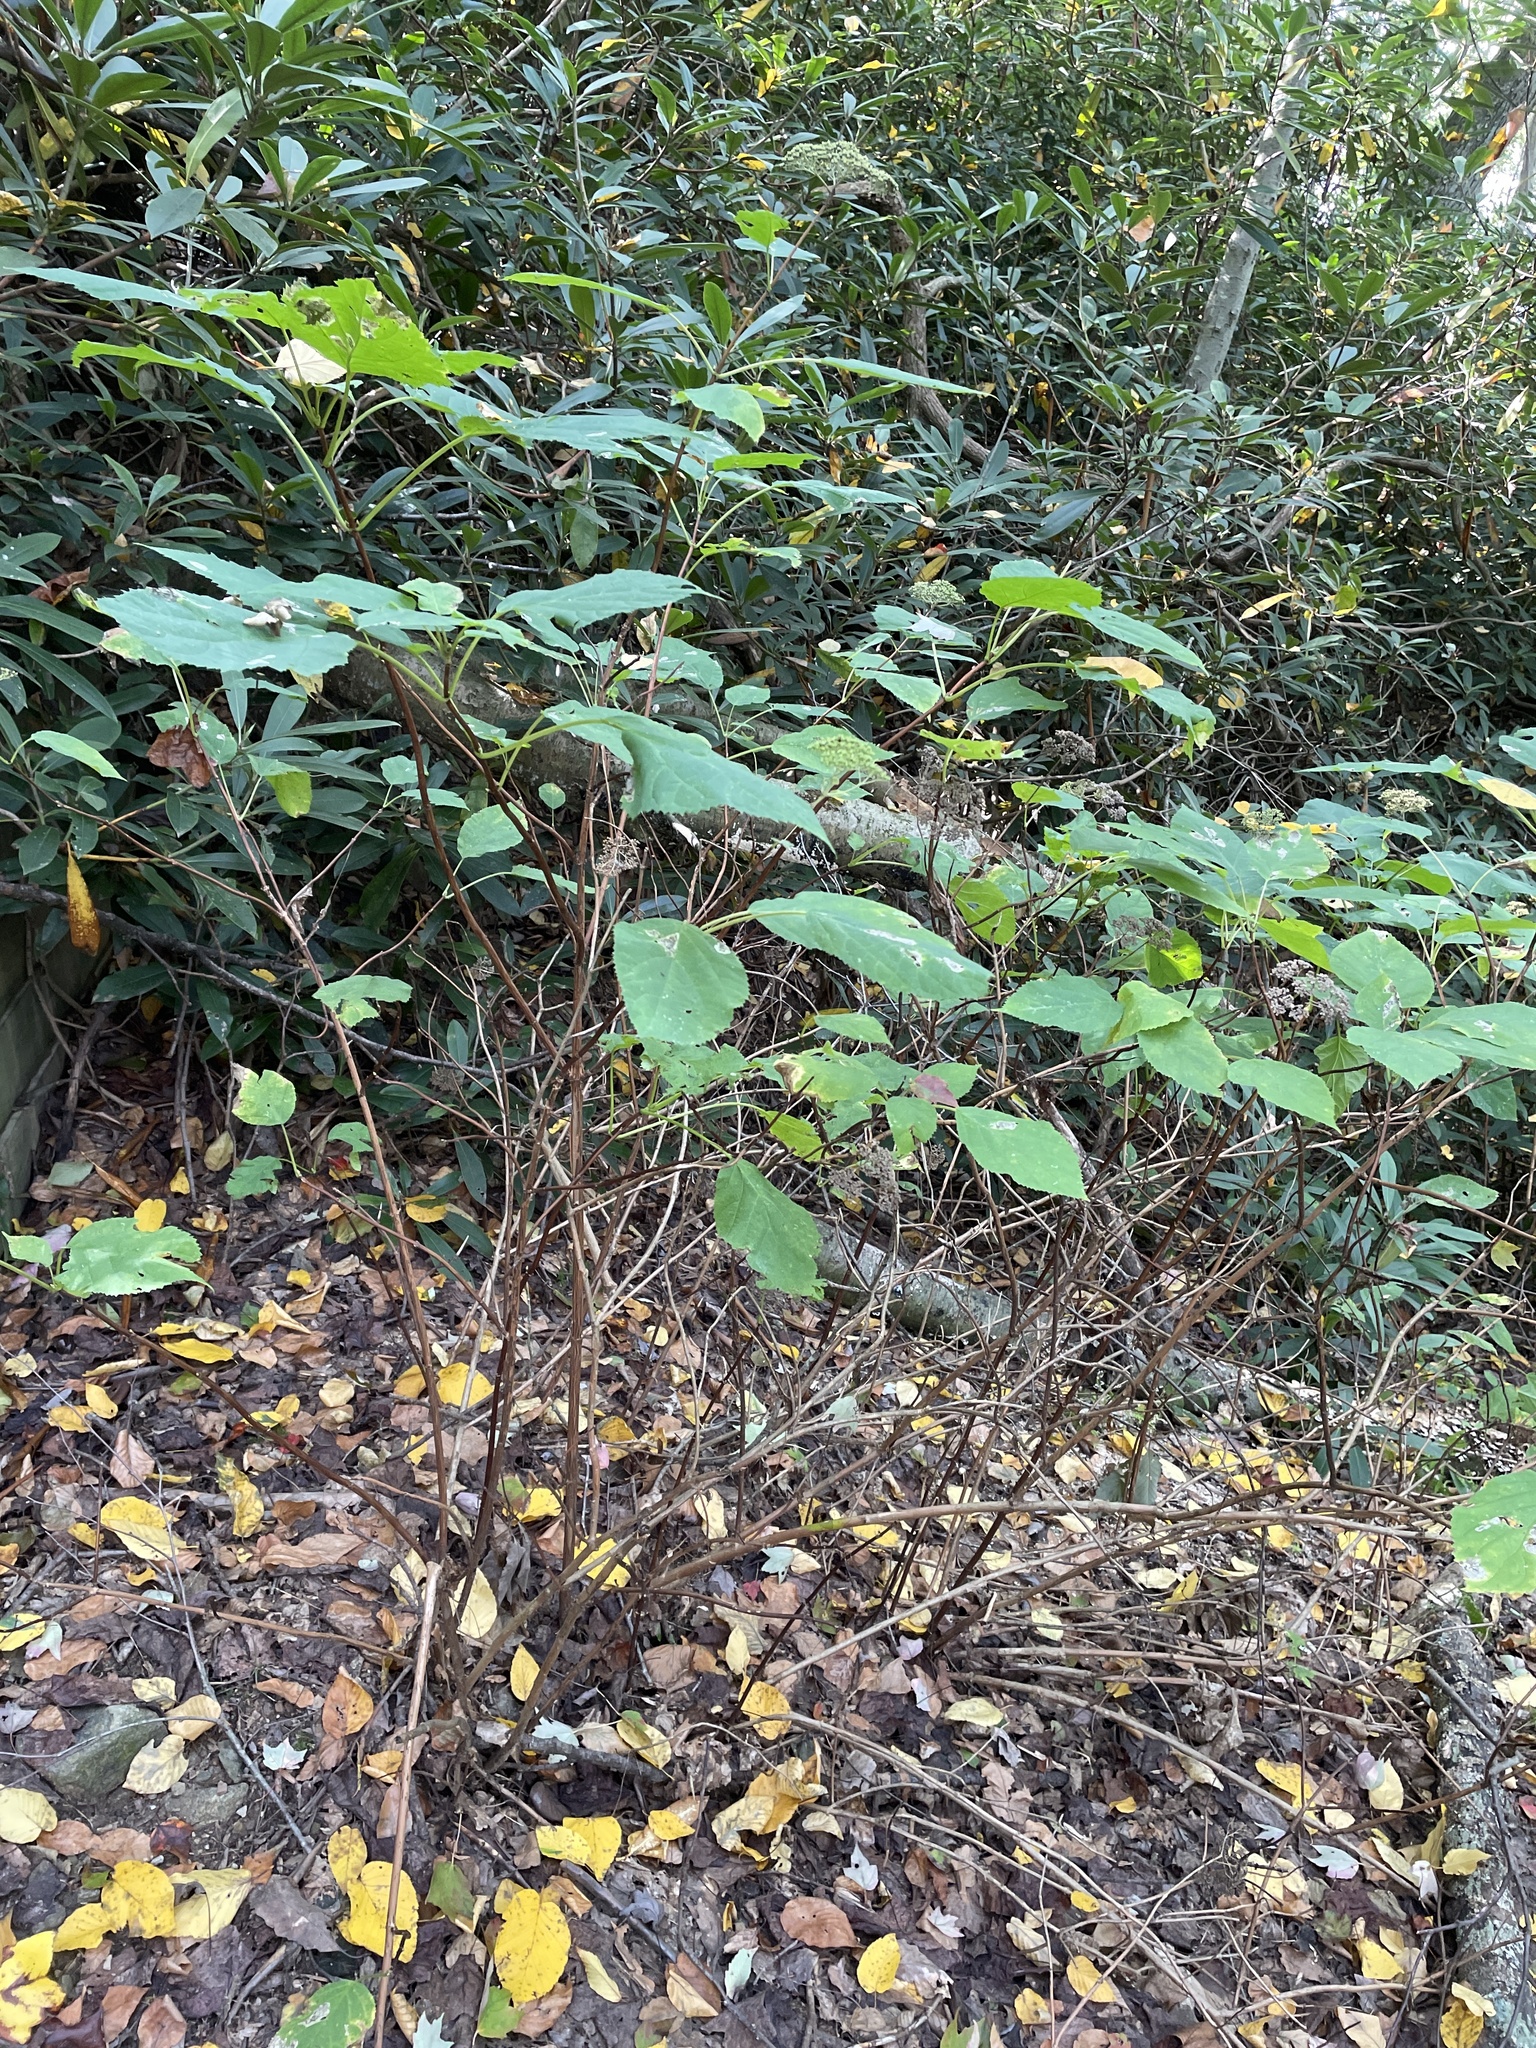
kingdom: Plantae
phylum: Tracheophyta
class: Magnoliopsida
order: Cornales
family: Hydrangeaceae
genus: Hydrangea
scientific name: Hydrangea arborescens
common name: Sevenbark
